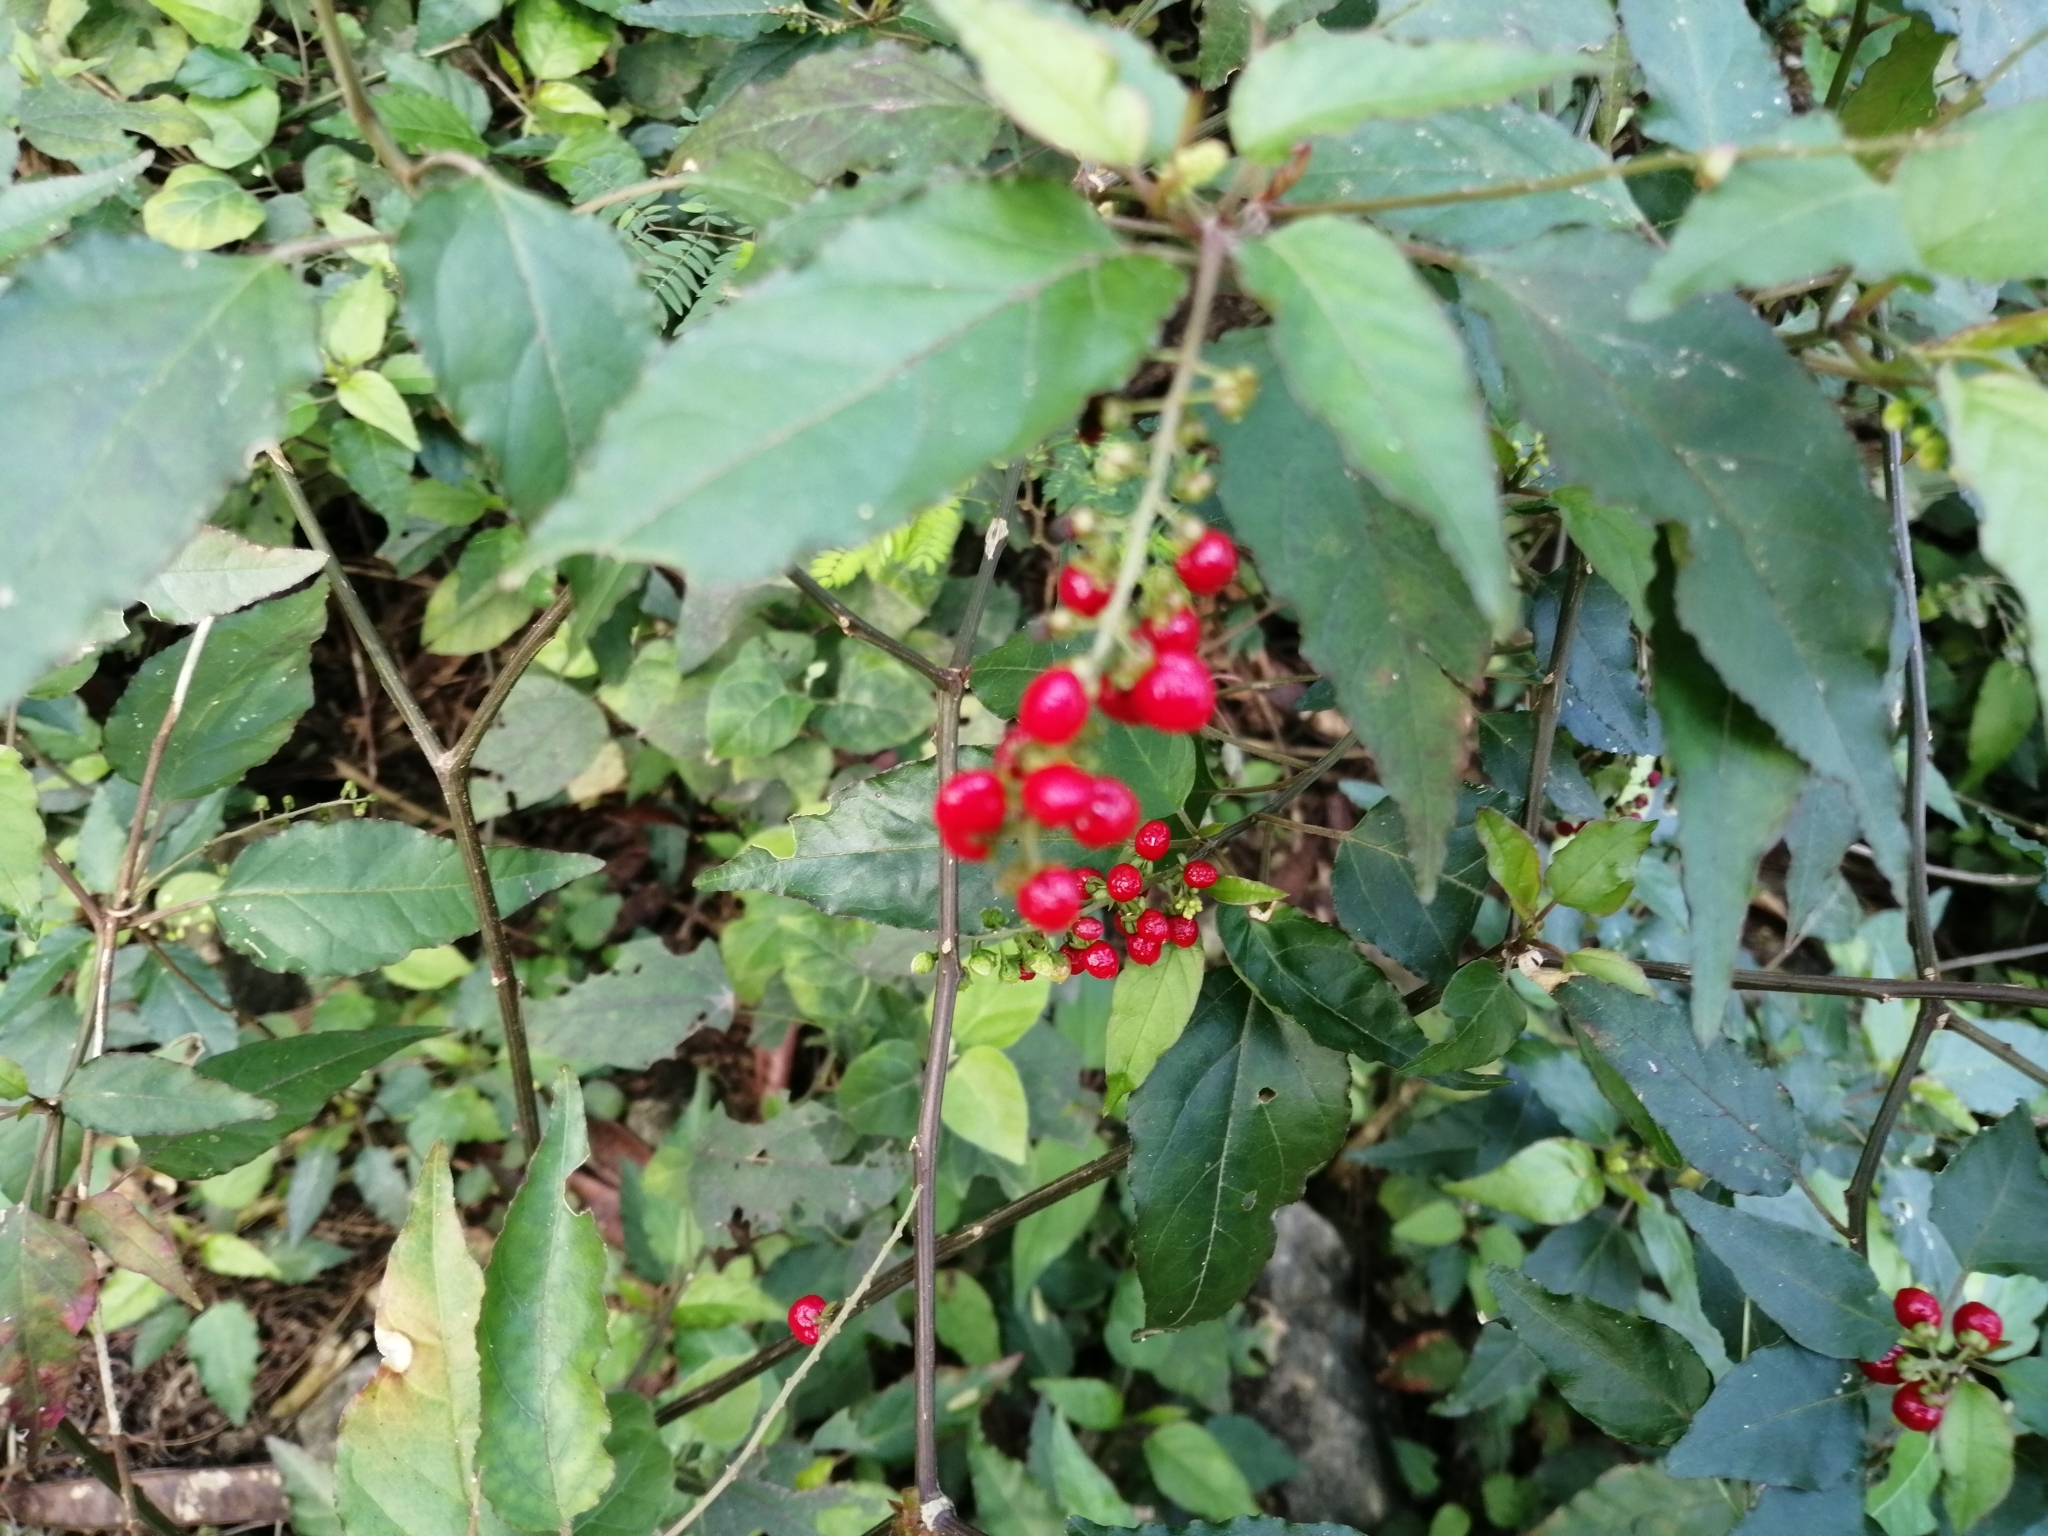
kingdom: Plantae
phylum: Tracheophyta
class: Magnoliopsida
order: Caryophyllales
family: Phytolaccaceae
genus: Rivina
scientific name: Rivina humilis
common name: Rougeplant
